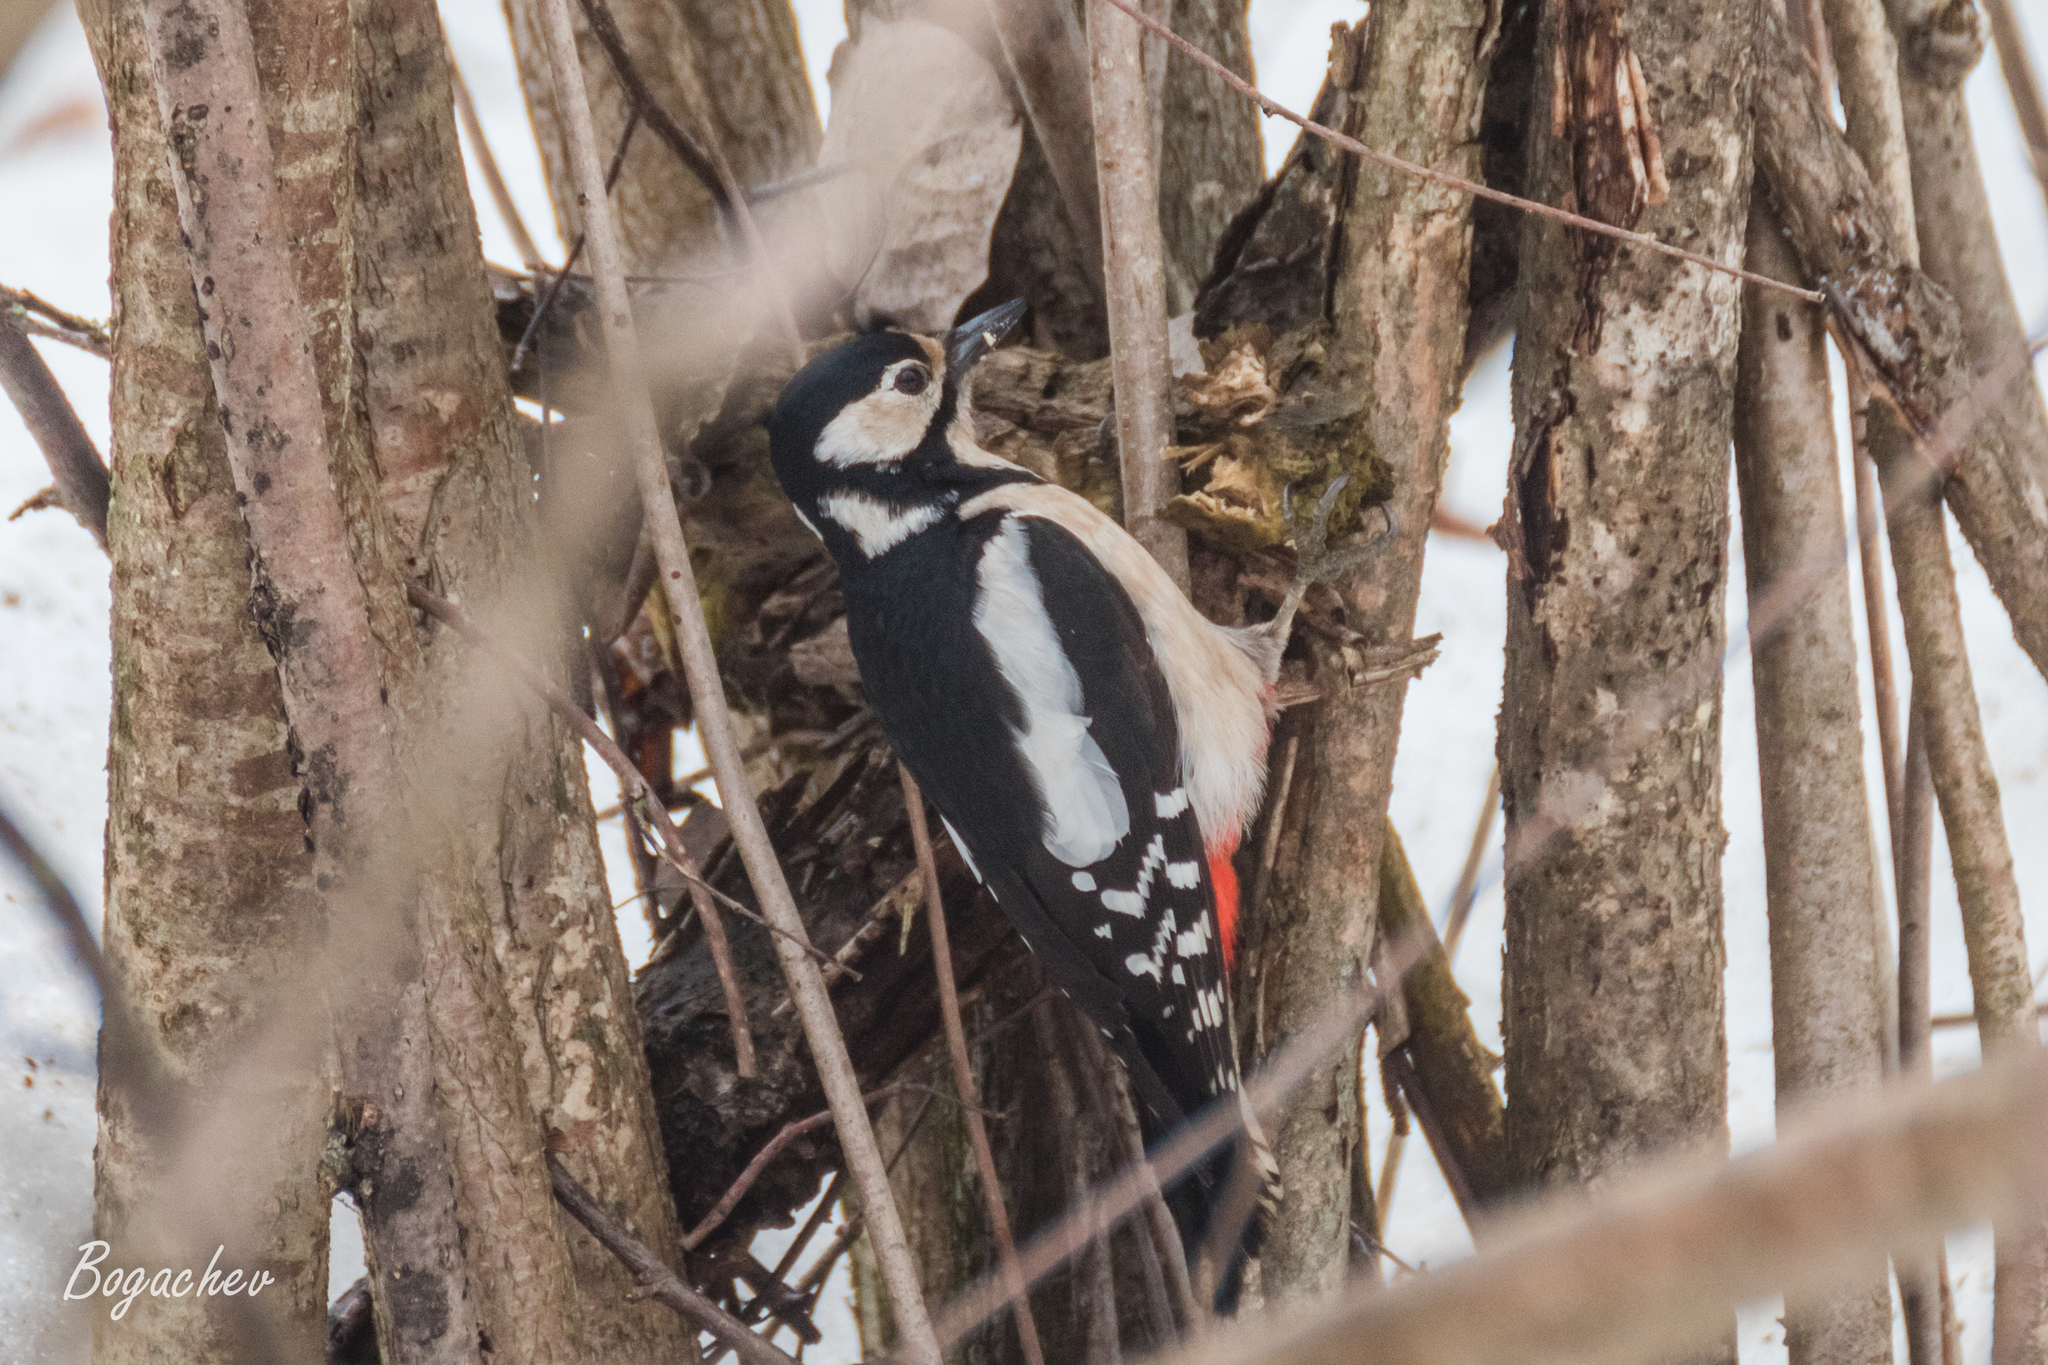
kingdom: Animalia
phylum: Chordata
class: Aves
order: Piciformes
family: Picidae
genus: Dendrocopos
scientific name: Dendrocopos major
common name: Great spotted woodpecker
